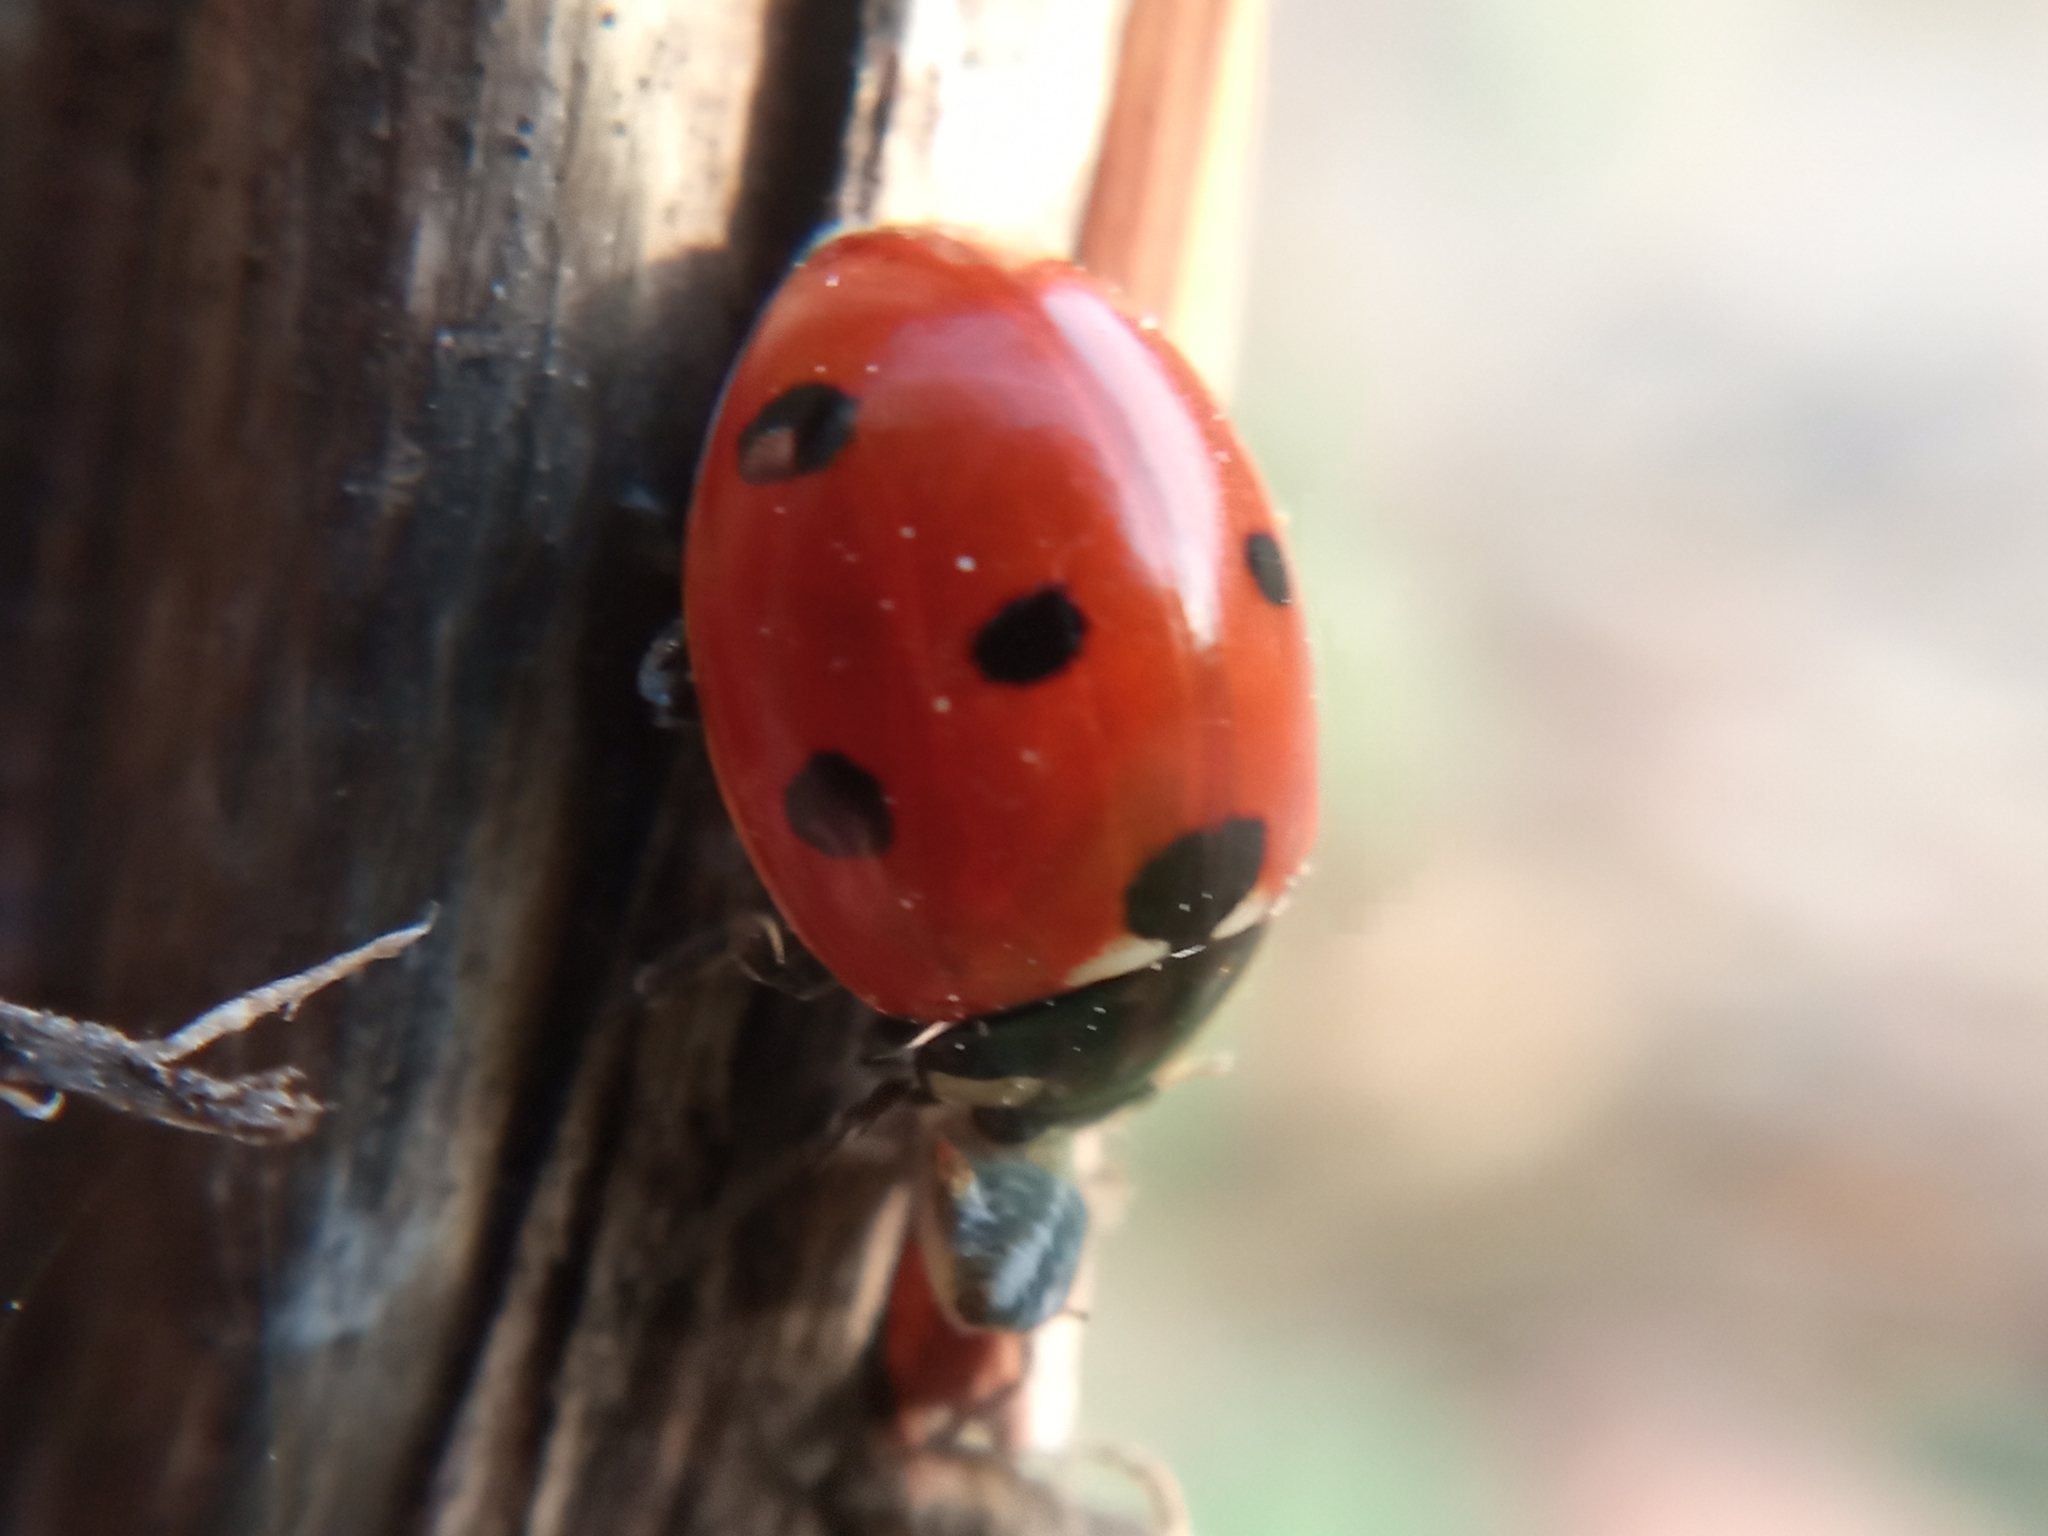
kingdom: Animalia
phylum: Arthropoda
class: Insecta
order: Coleoptera
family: Coccinellidae
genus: Coccinella
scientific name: Coccinella septempunctata
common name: Sevenspotted lady beetle
